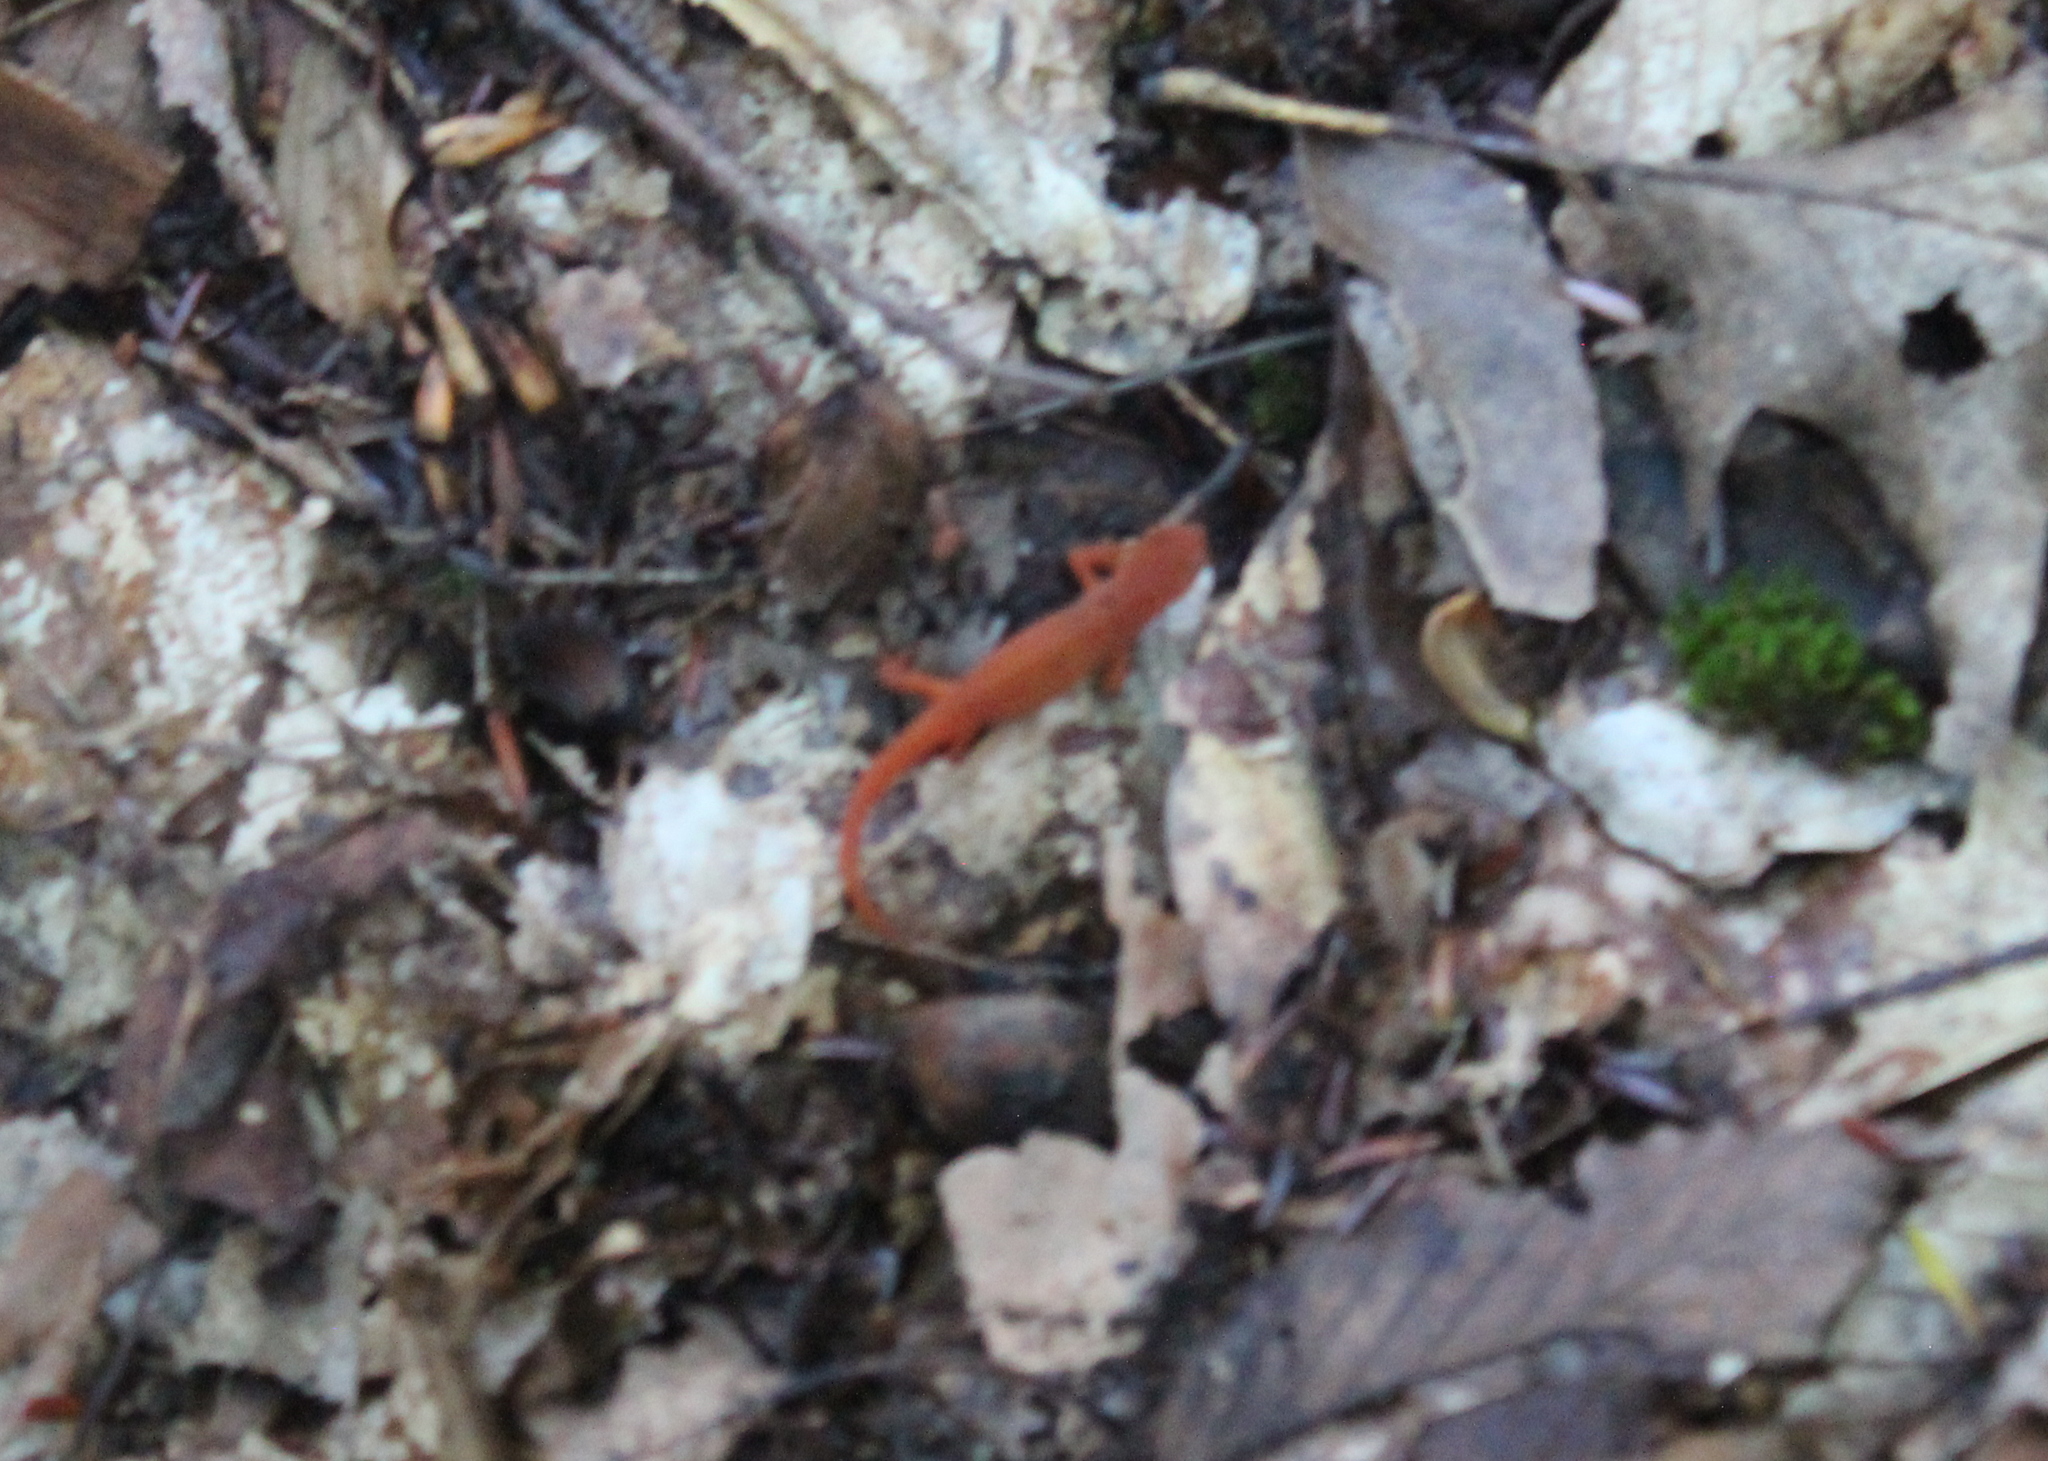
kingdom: Animalia
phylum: Chordata
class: Amphibia
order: Caudata
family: Salamandridae
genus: Notophthalmus
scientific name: Notophthalmus viridescens
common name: Eastern newt
